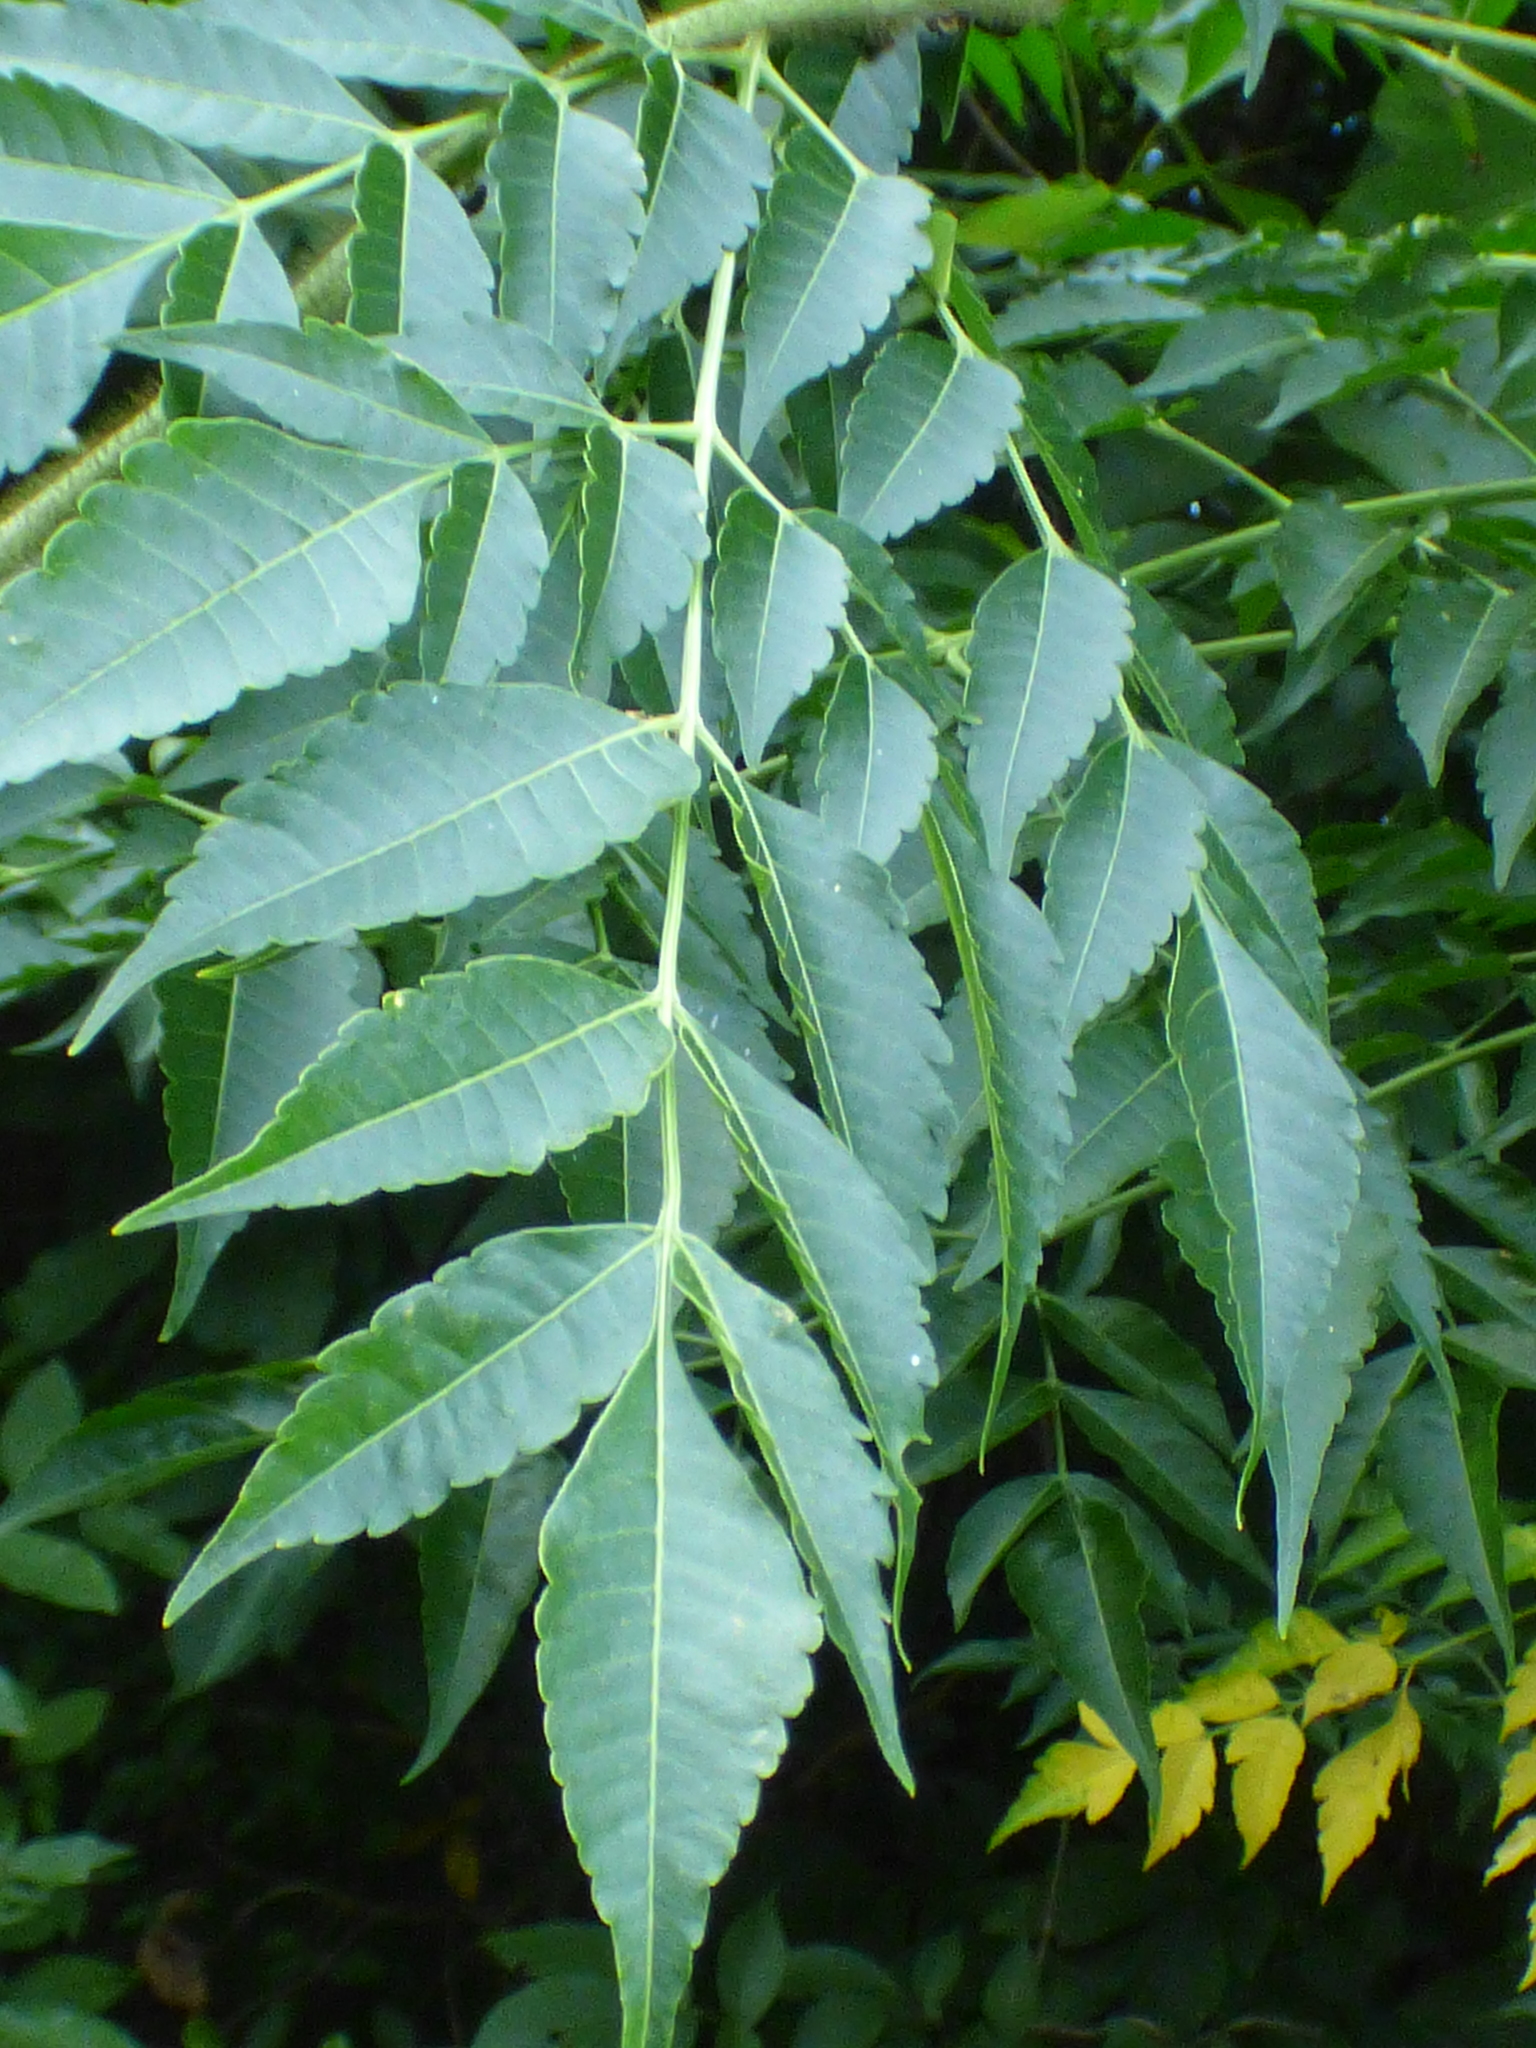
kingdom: Plantae
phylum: Tracheophyta
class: Magnoliopsida
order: Sapindales
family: Meliaceae
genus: Melia
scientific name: Melia azedarach
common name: Chinaberrytree
